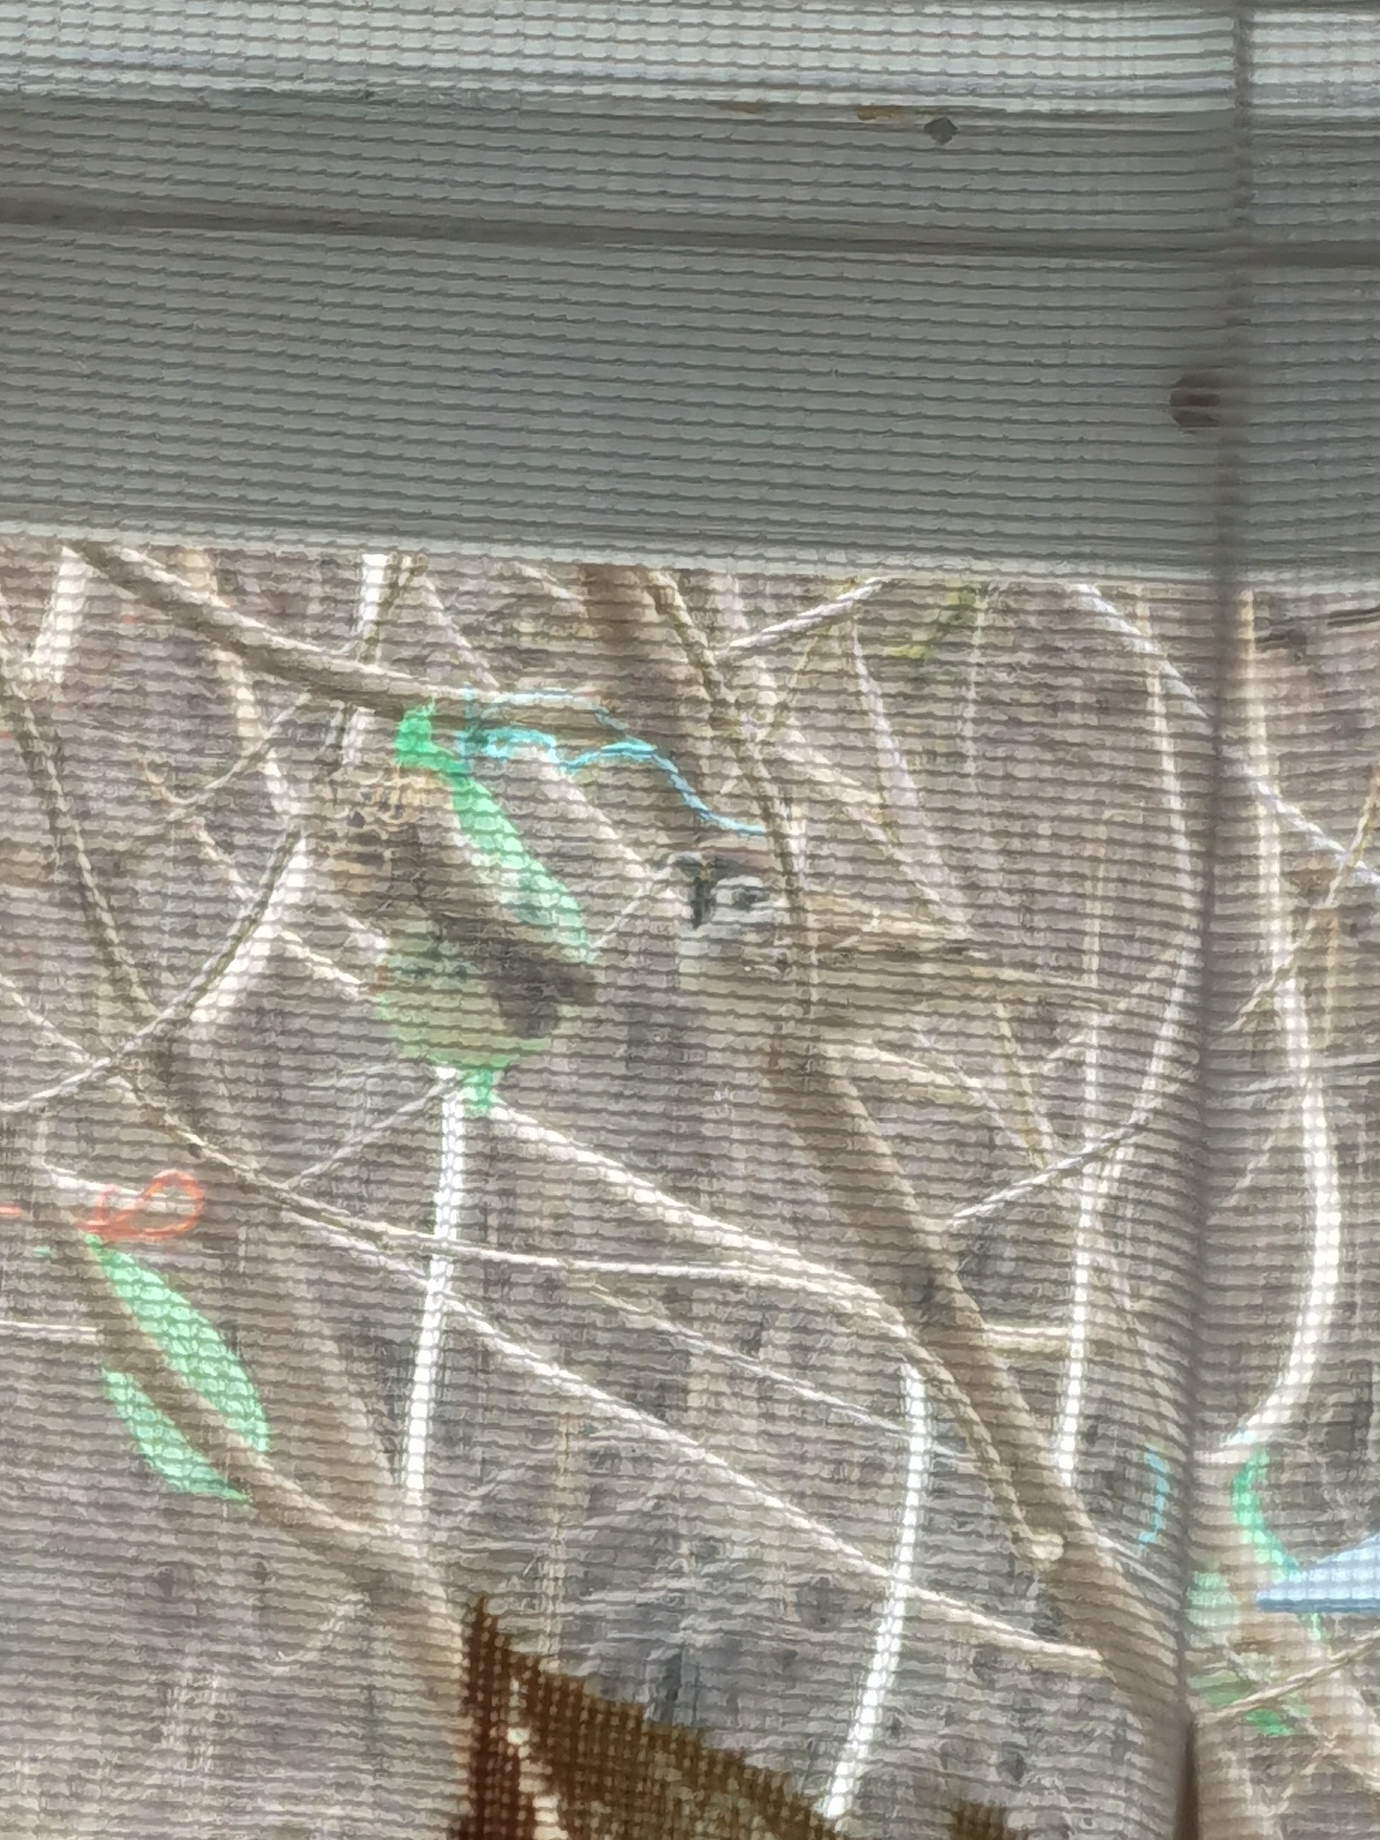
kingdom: Animalia
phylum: Chordata
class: Aves
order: Passeriformes
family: Passeridae
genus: Passer
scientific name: Passer montanus
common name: Eurasian tree sparrow
